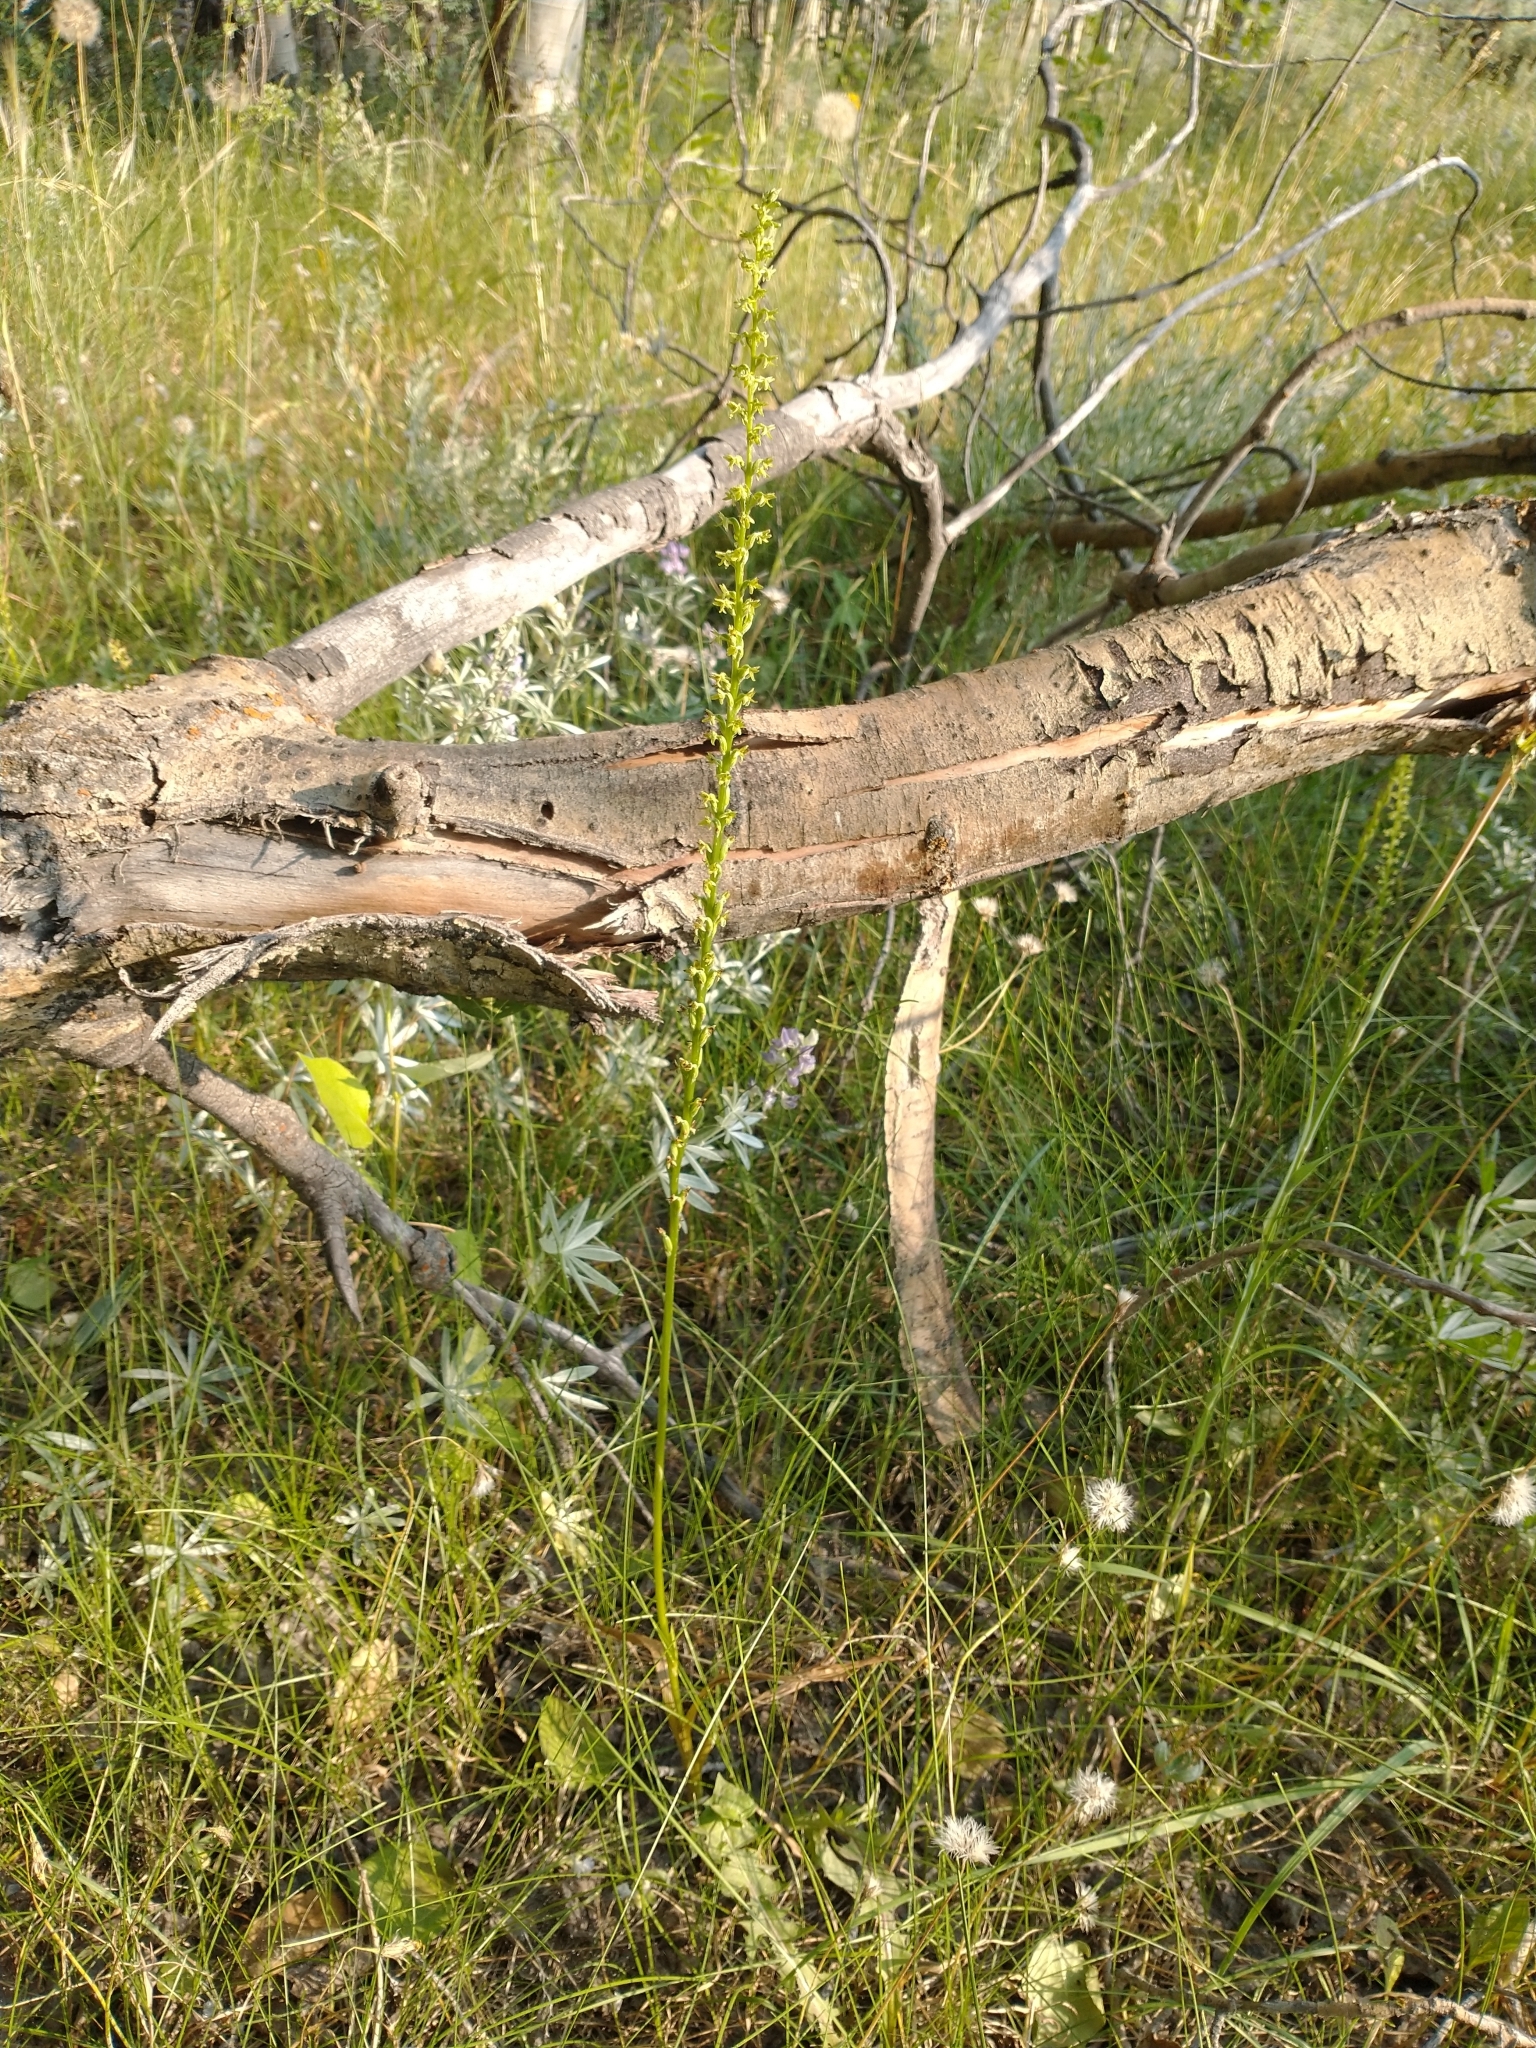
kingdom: Plantae
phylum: Tracheophyta
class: Liliopsida
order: Asparagales
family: Orchidaceae
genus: Platanthera
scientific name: Platanthera unalascensis
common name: Alaska bog orchid
